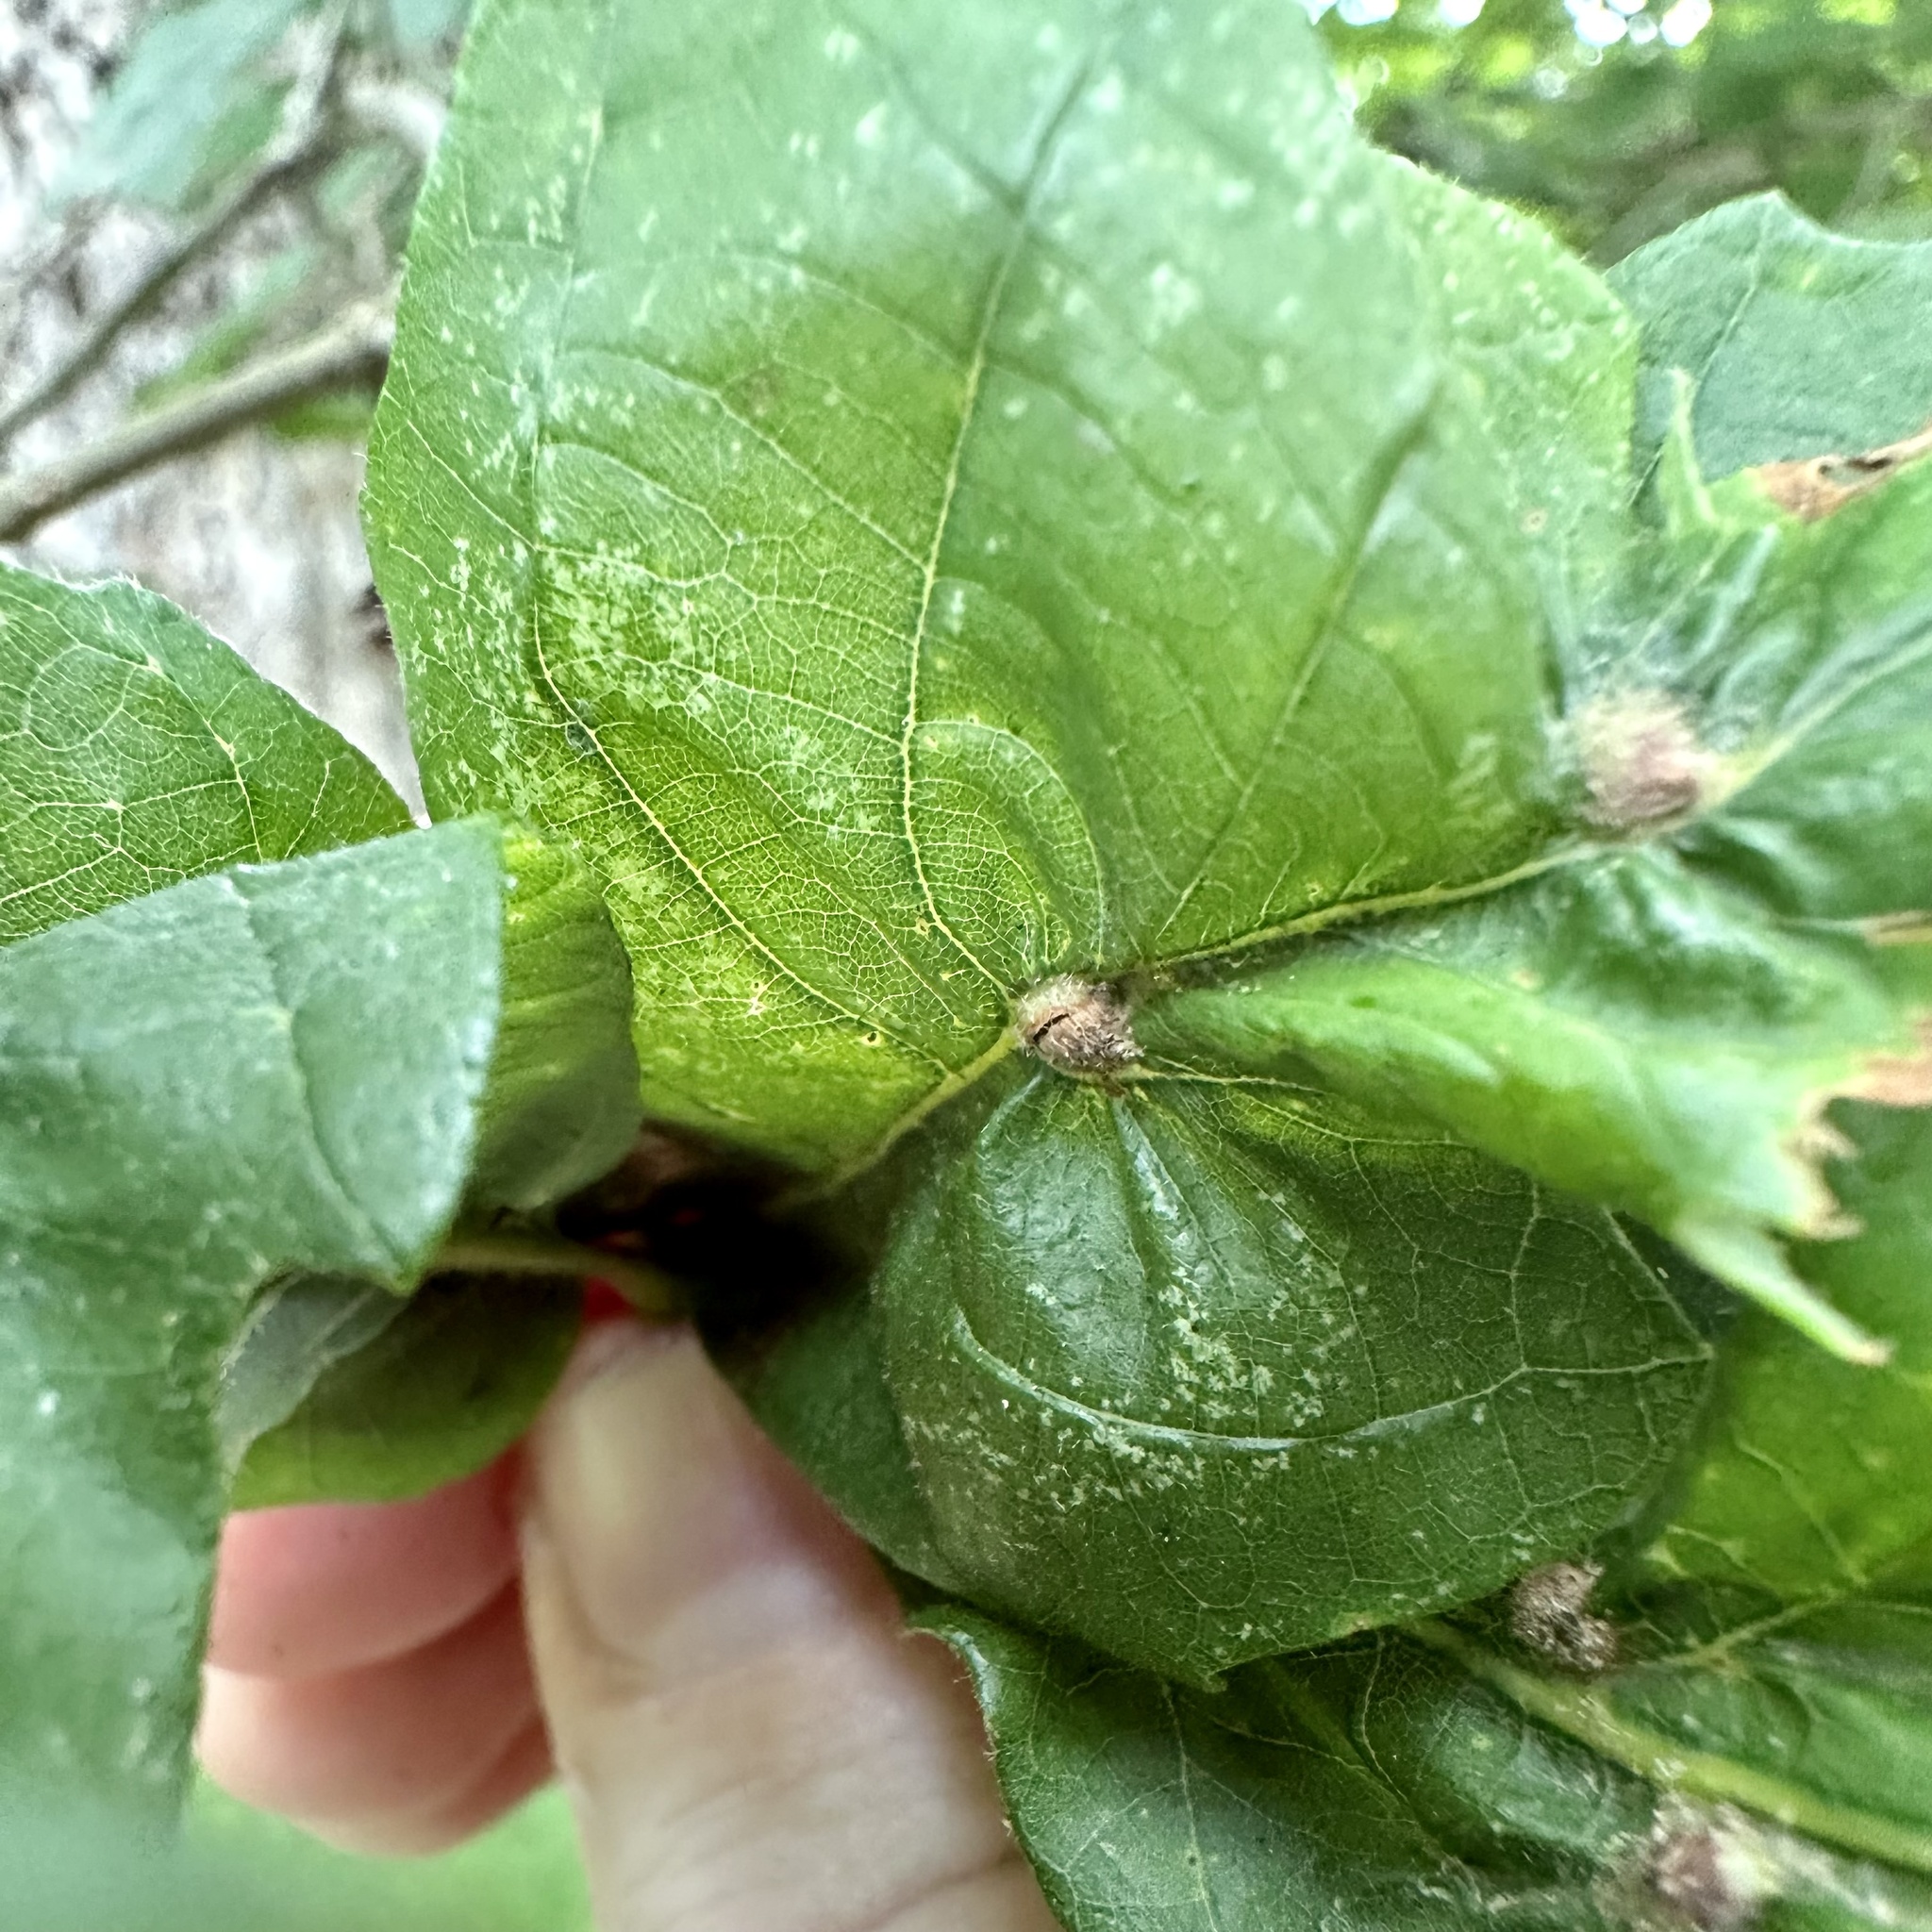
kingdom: Animalia
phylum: Arthropoda
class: Insecta
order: Hymenoptera
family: Cynipidae
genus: Andricus
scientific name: Andricus
